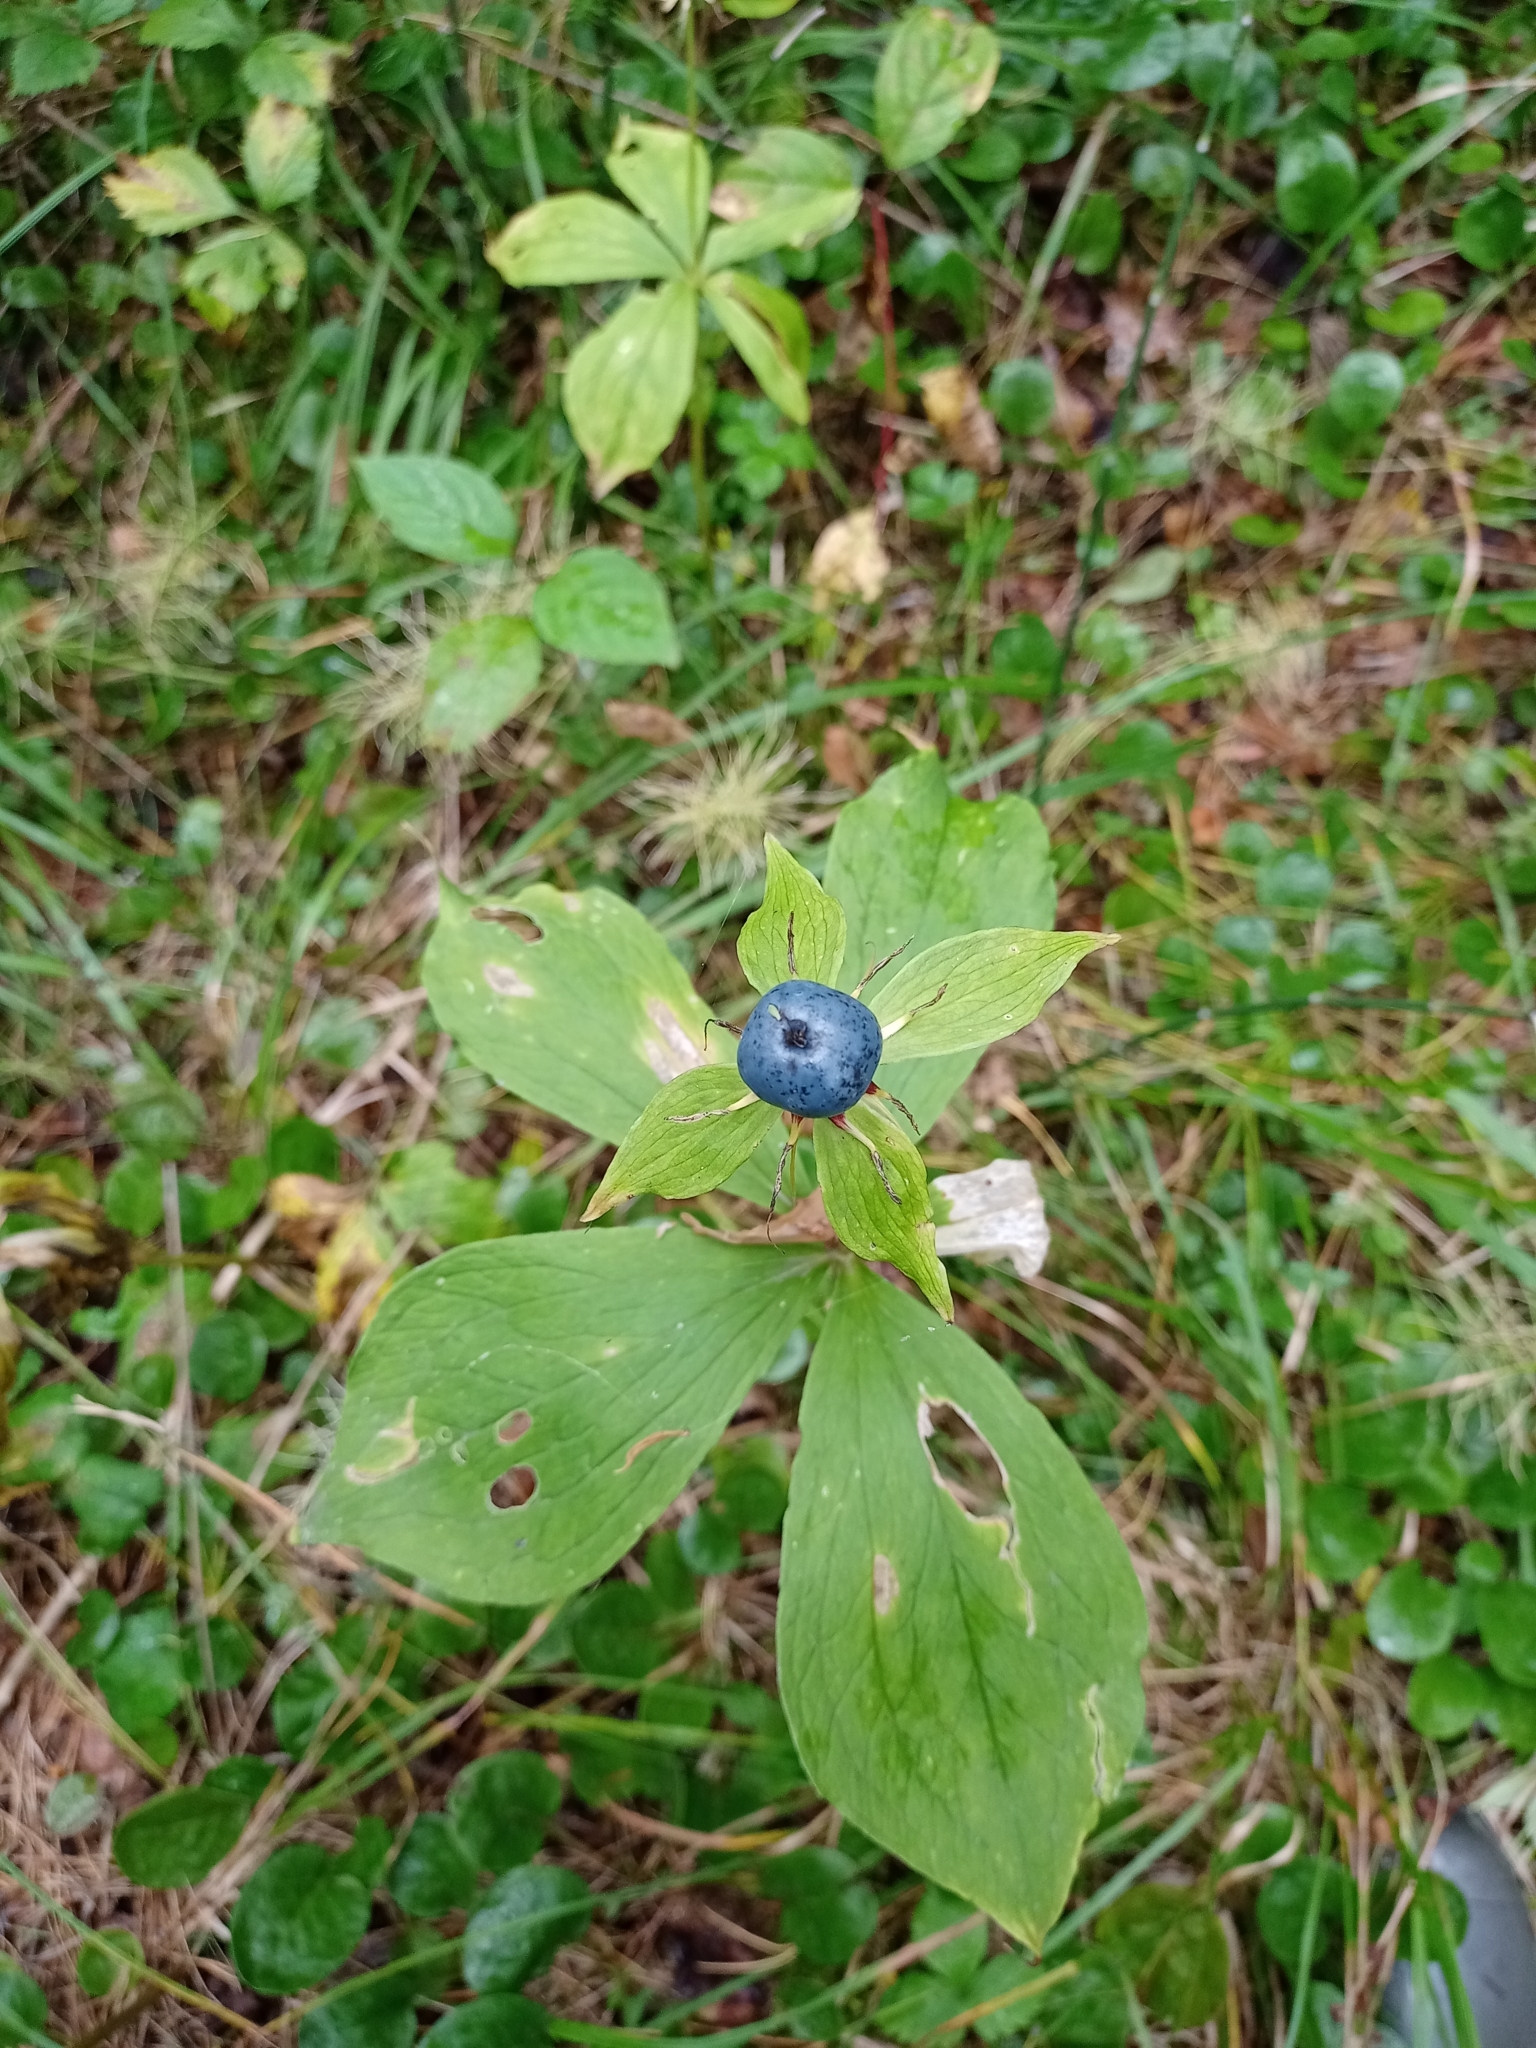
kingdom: Plantae
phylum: Tracheophyta
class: Liliopsida
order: Liliales
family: Melanthiaceae
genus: Paris
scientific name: Paris quadrifolia
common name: Herb-paris
